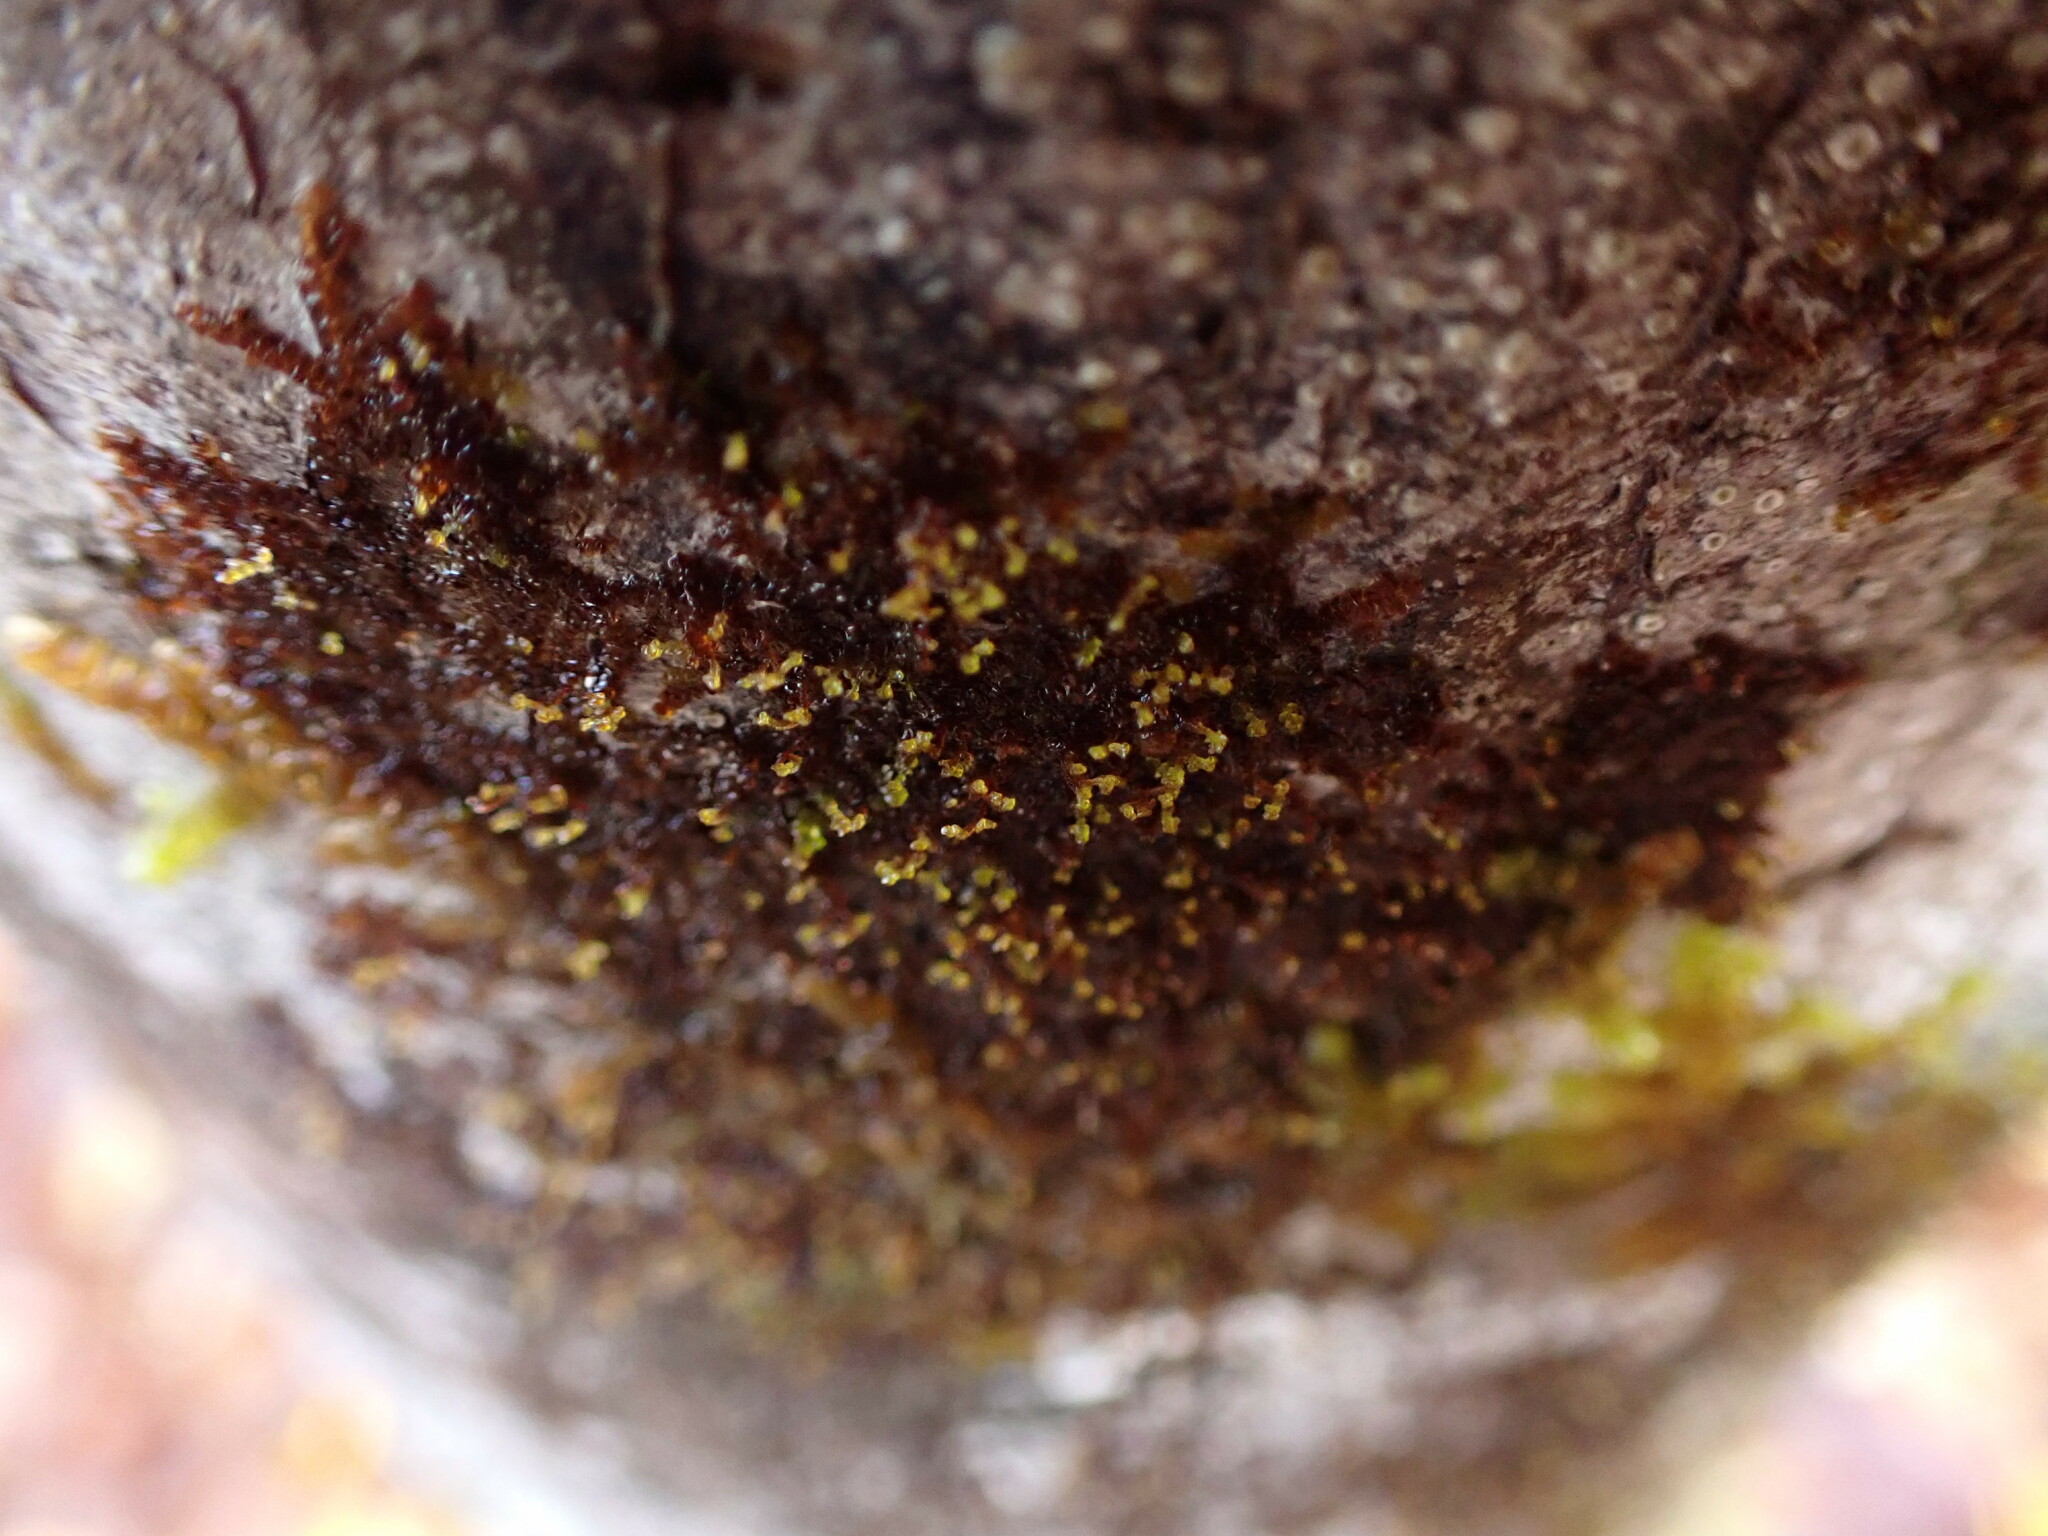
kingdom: Plantae
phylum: Marchantiophyta
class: Jungermanniopsida
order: Porellales
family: Frullaniaceae
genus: Frullania
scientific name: Frullania bolanderi
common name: Bolander s scalewort
